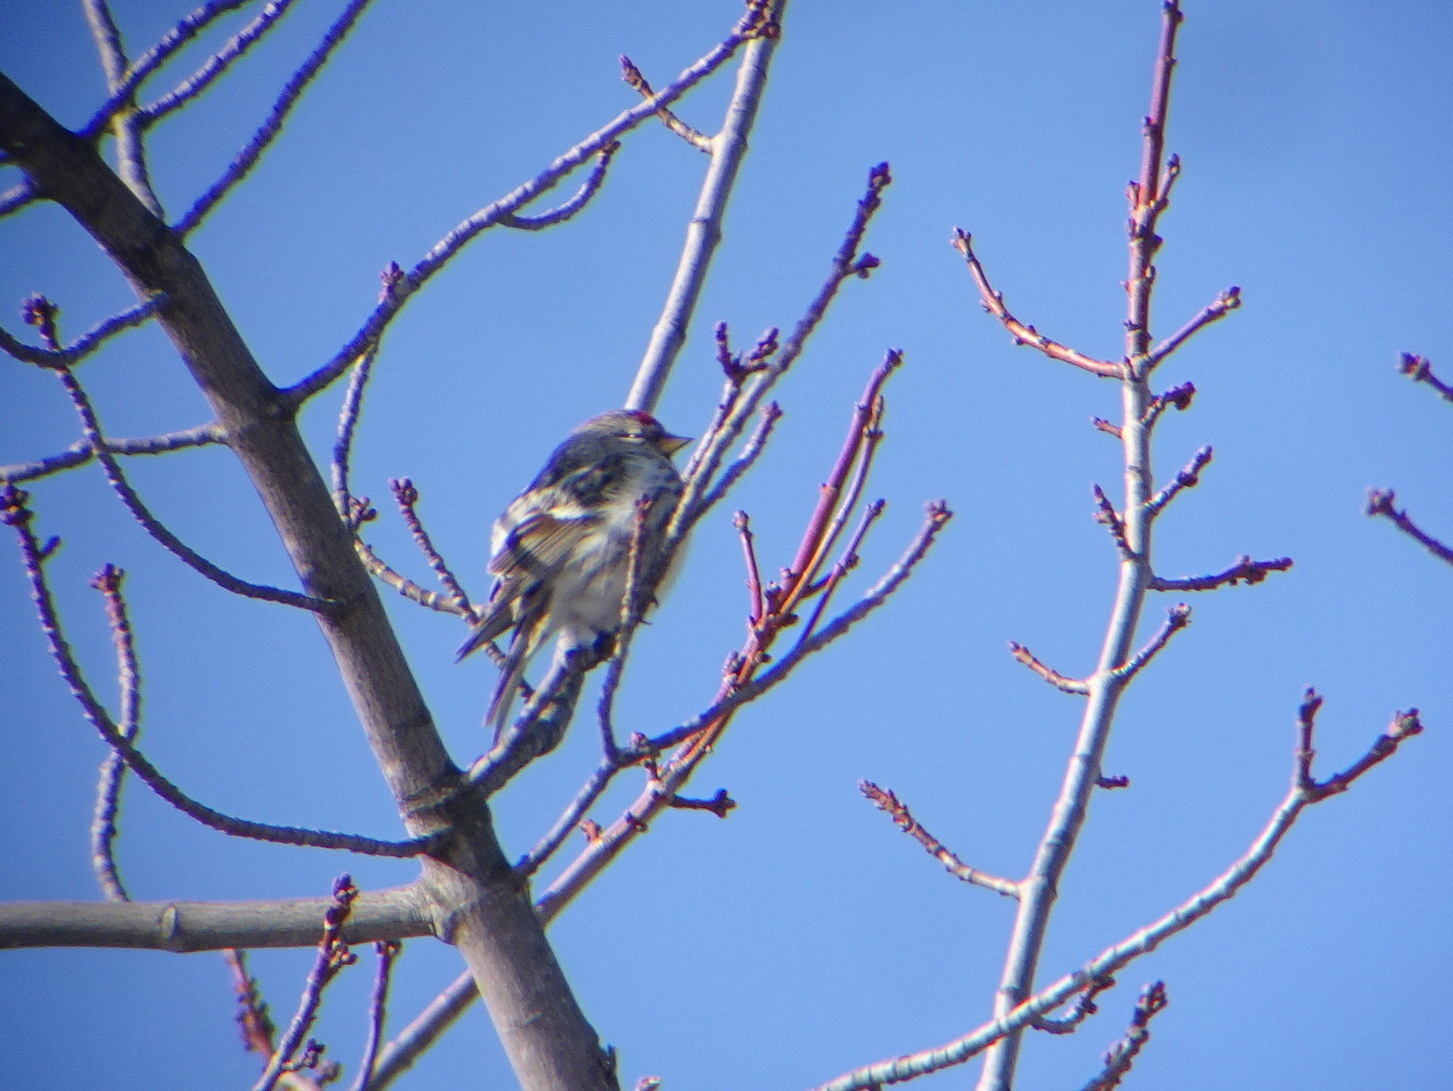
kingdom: Animalia
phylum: Chordata
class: Aves
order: Passeriformes
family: Fringillidae
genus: Acanthis
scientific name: Acanthis flammea
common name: Common redpoll
